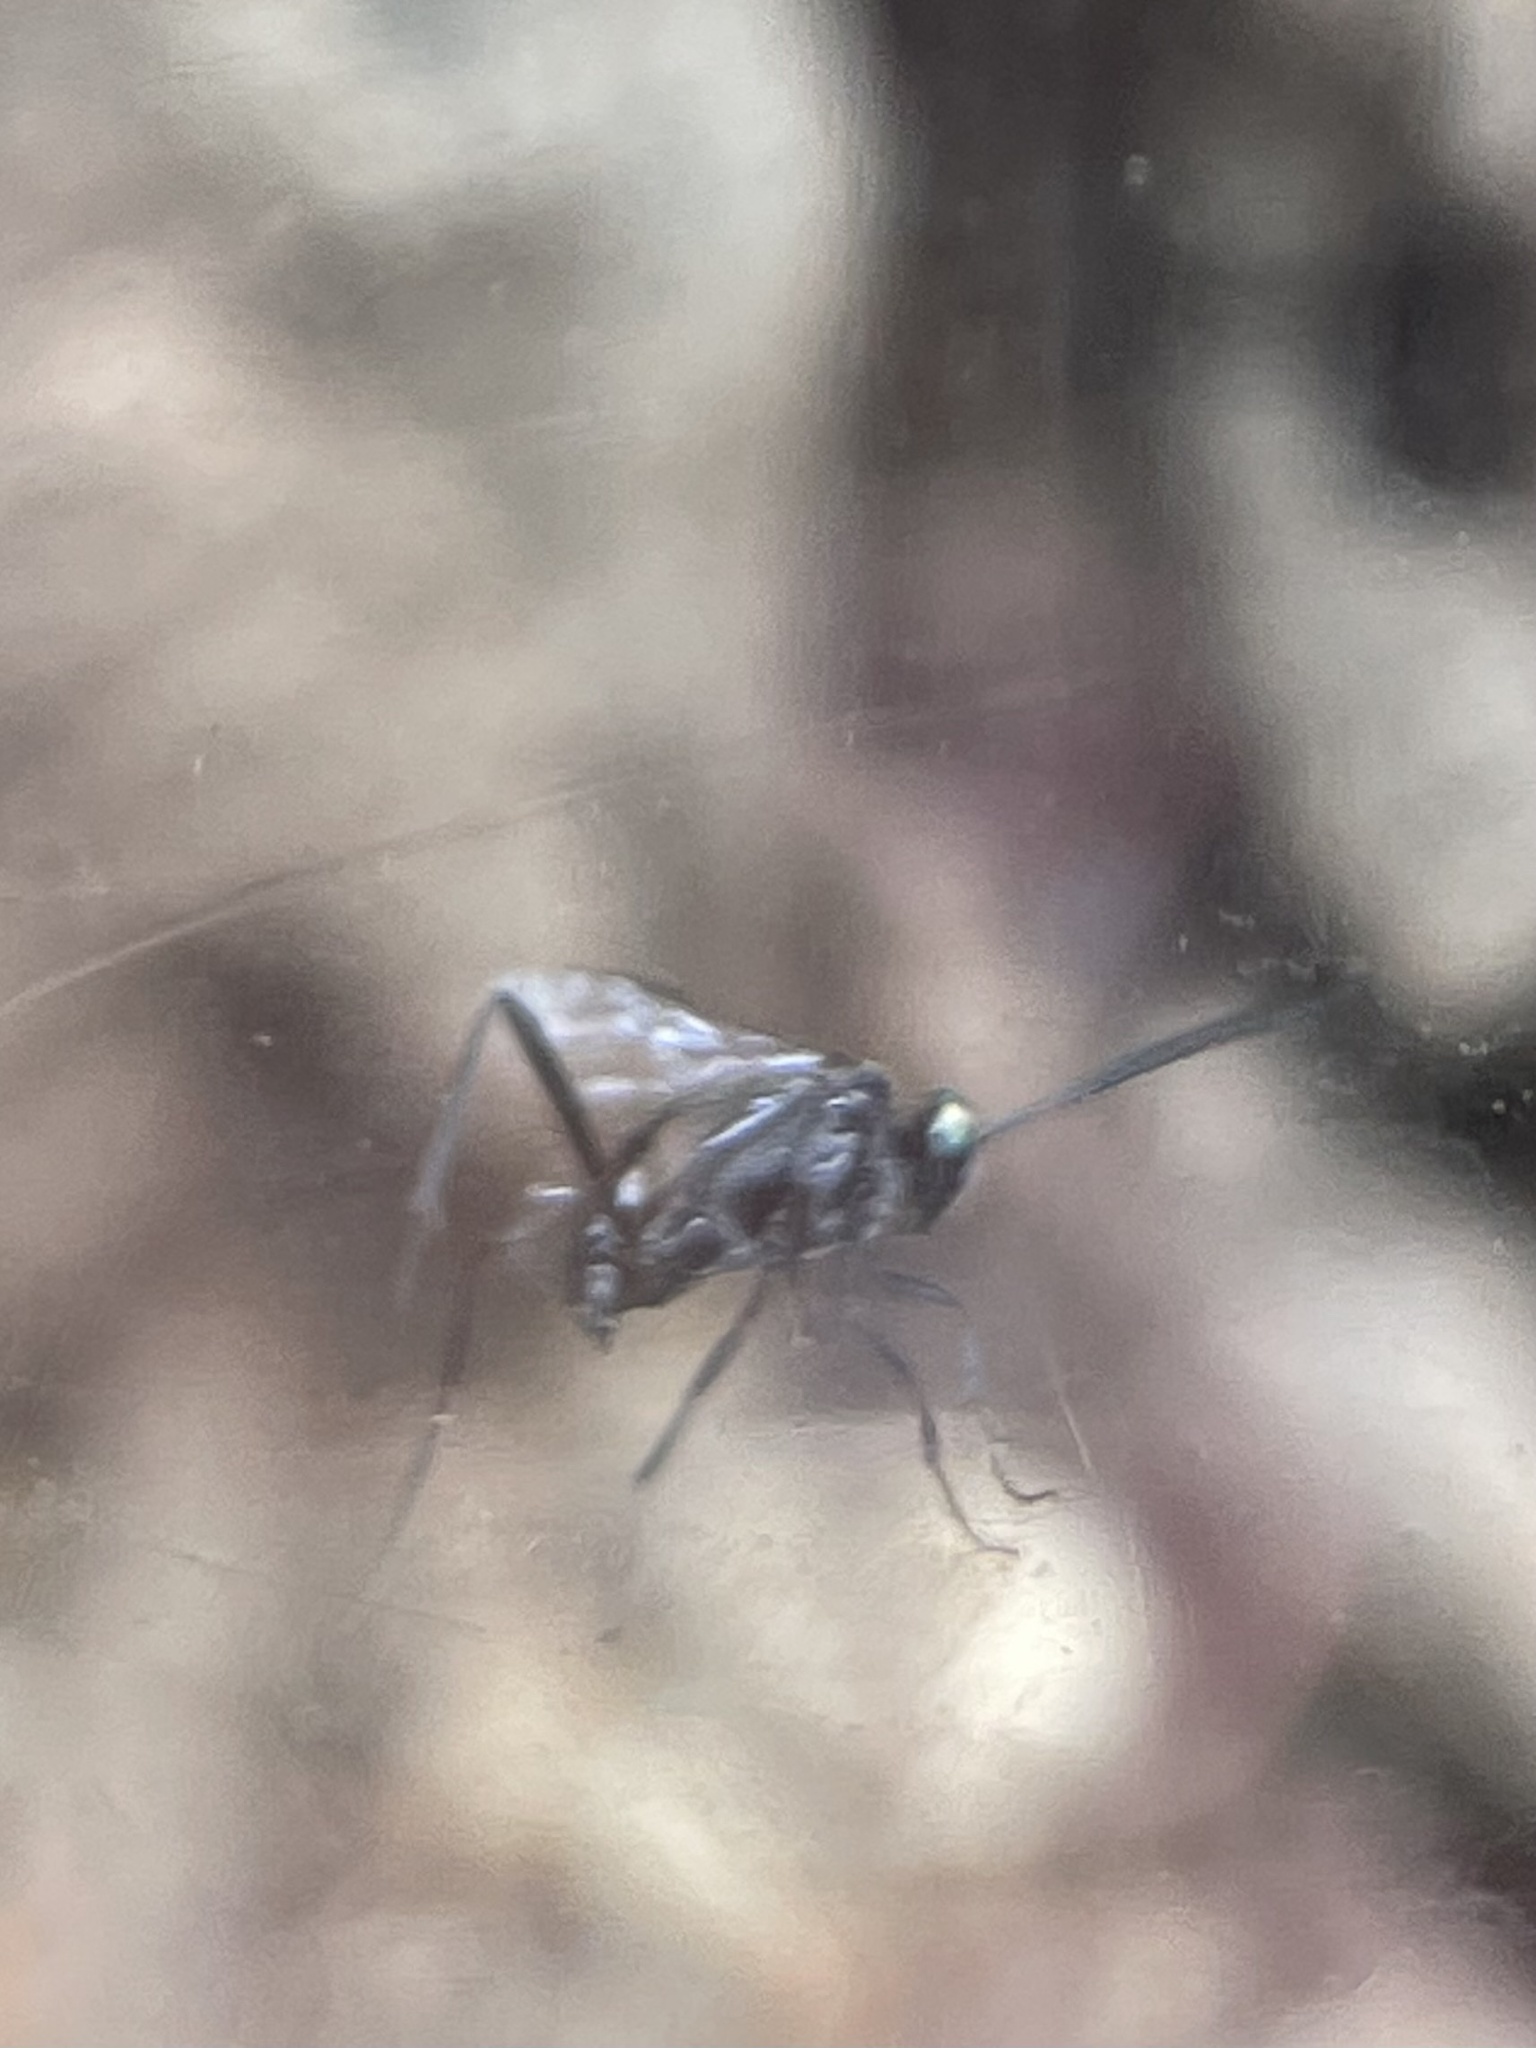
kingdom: Animalia
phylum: Arthropoda
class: Insecta
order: Hymenoptera
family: Evaniidae
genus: Evania
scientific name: Evania appendigaster
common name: Ensign wasp
